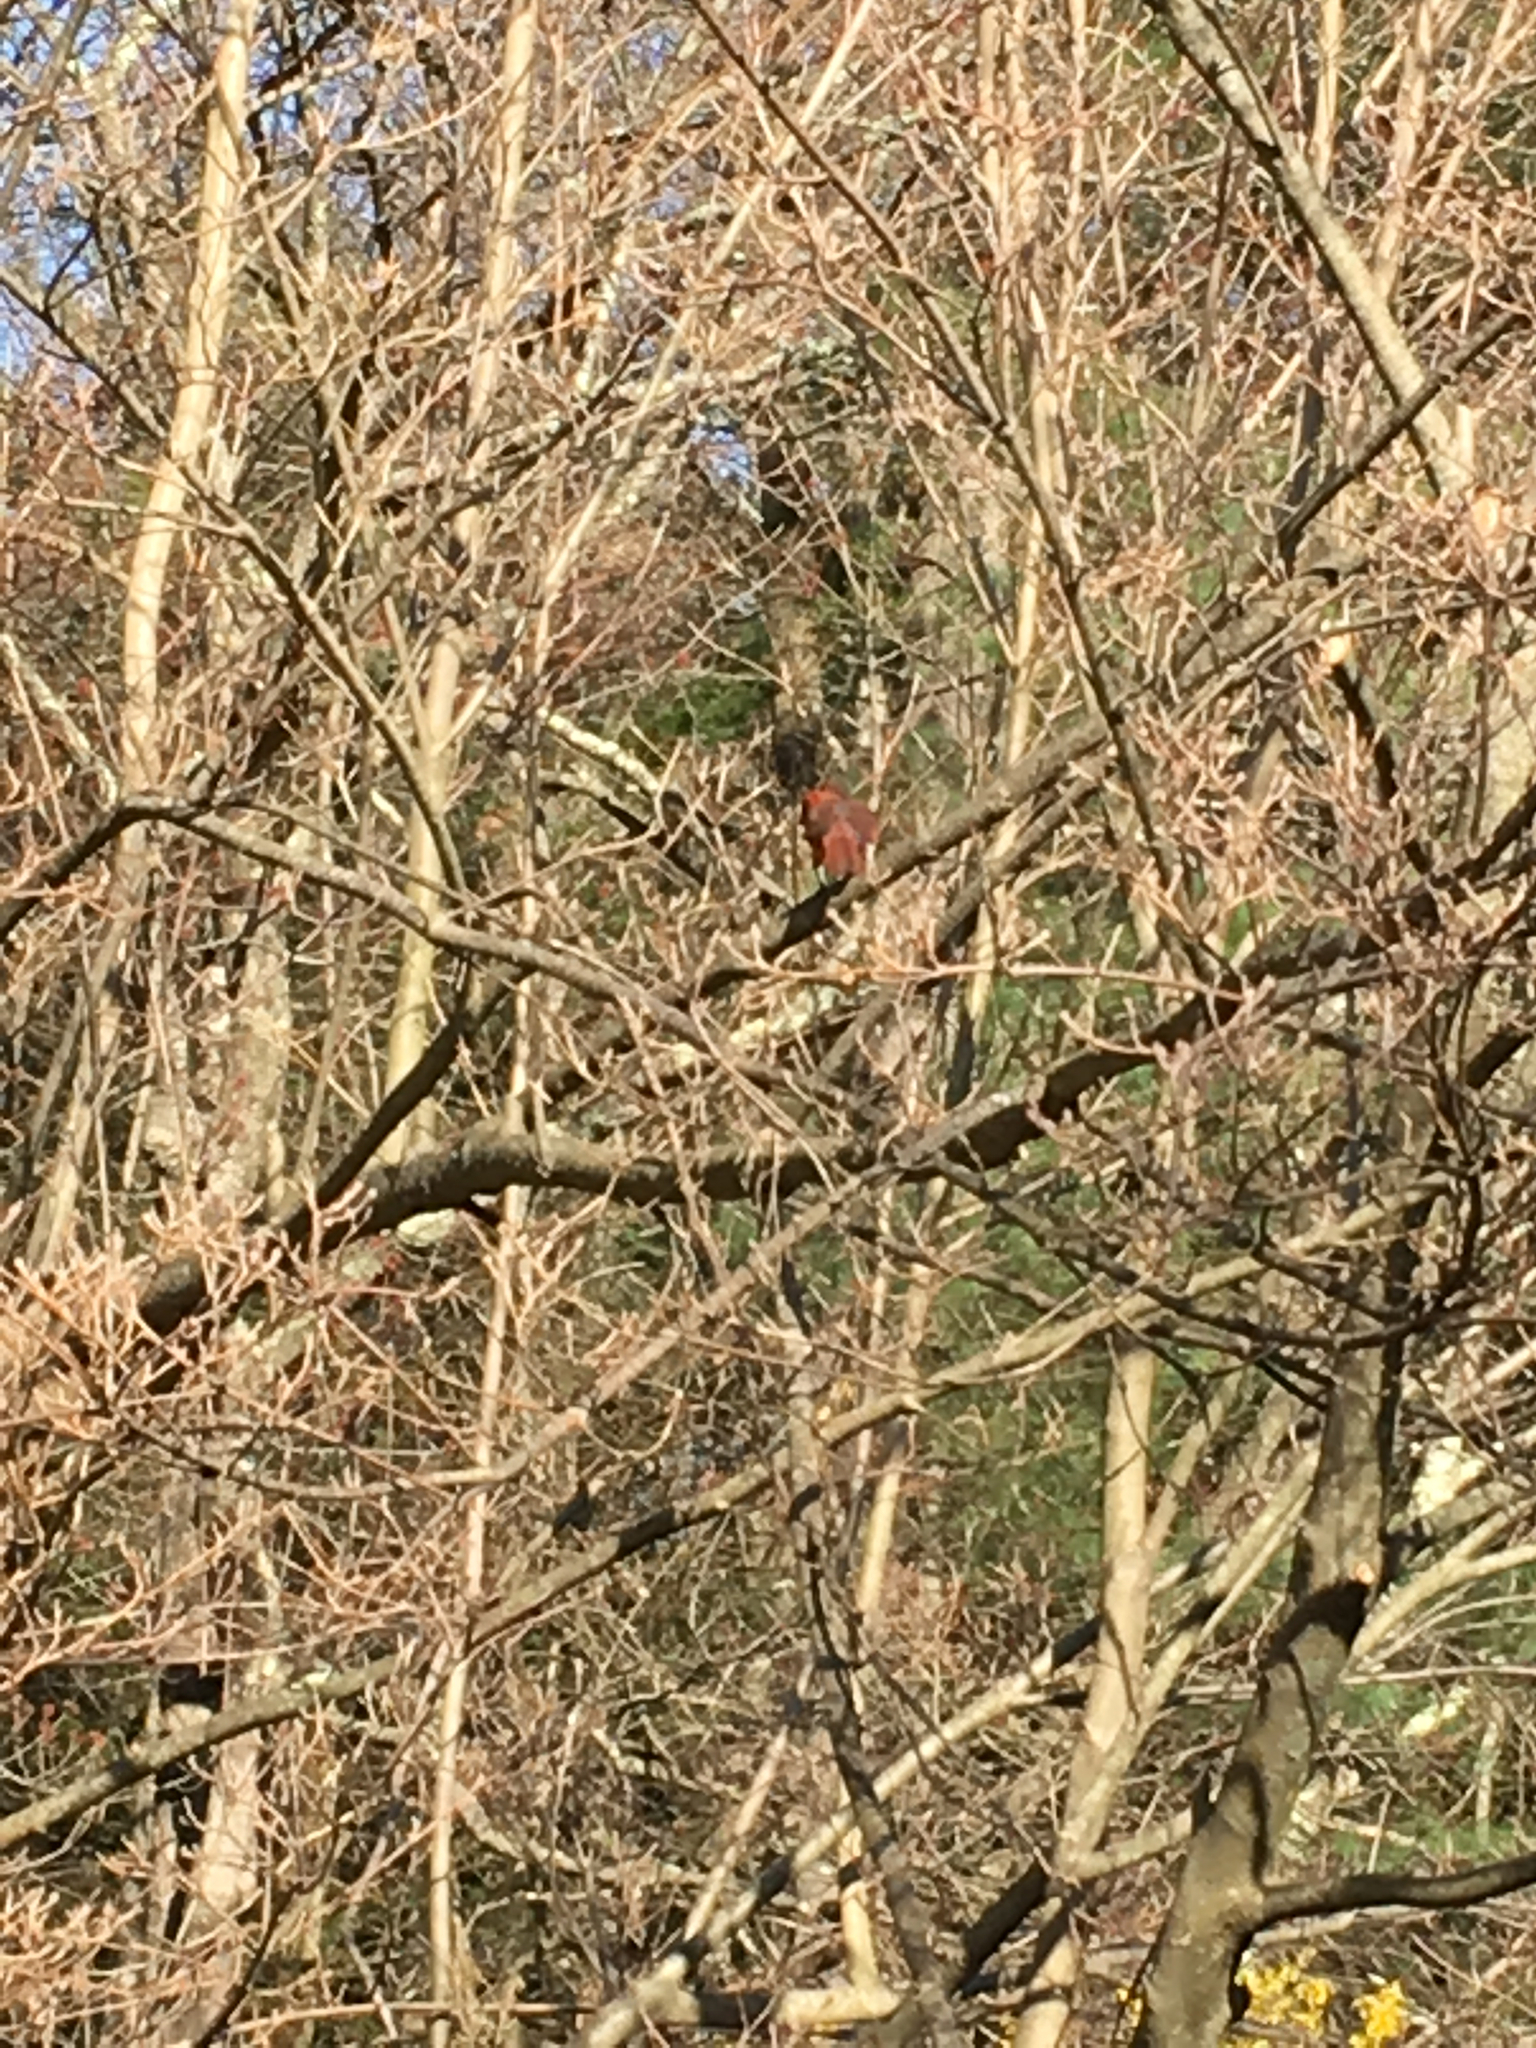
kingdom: Animalia
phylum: Chordata
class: Aves
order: Passeriformes
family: Cardinalidae
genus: Cardinalis
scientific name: Cardinalis cardinalis
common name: Northern cardinal
